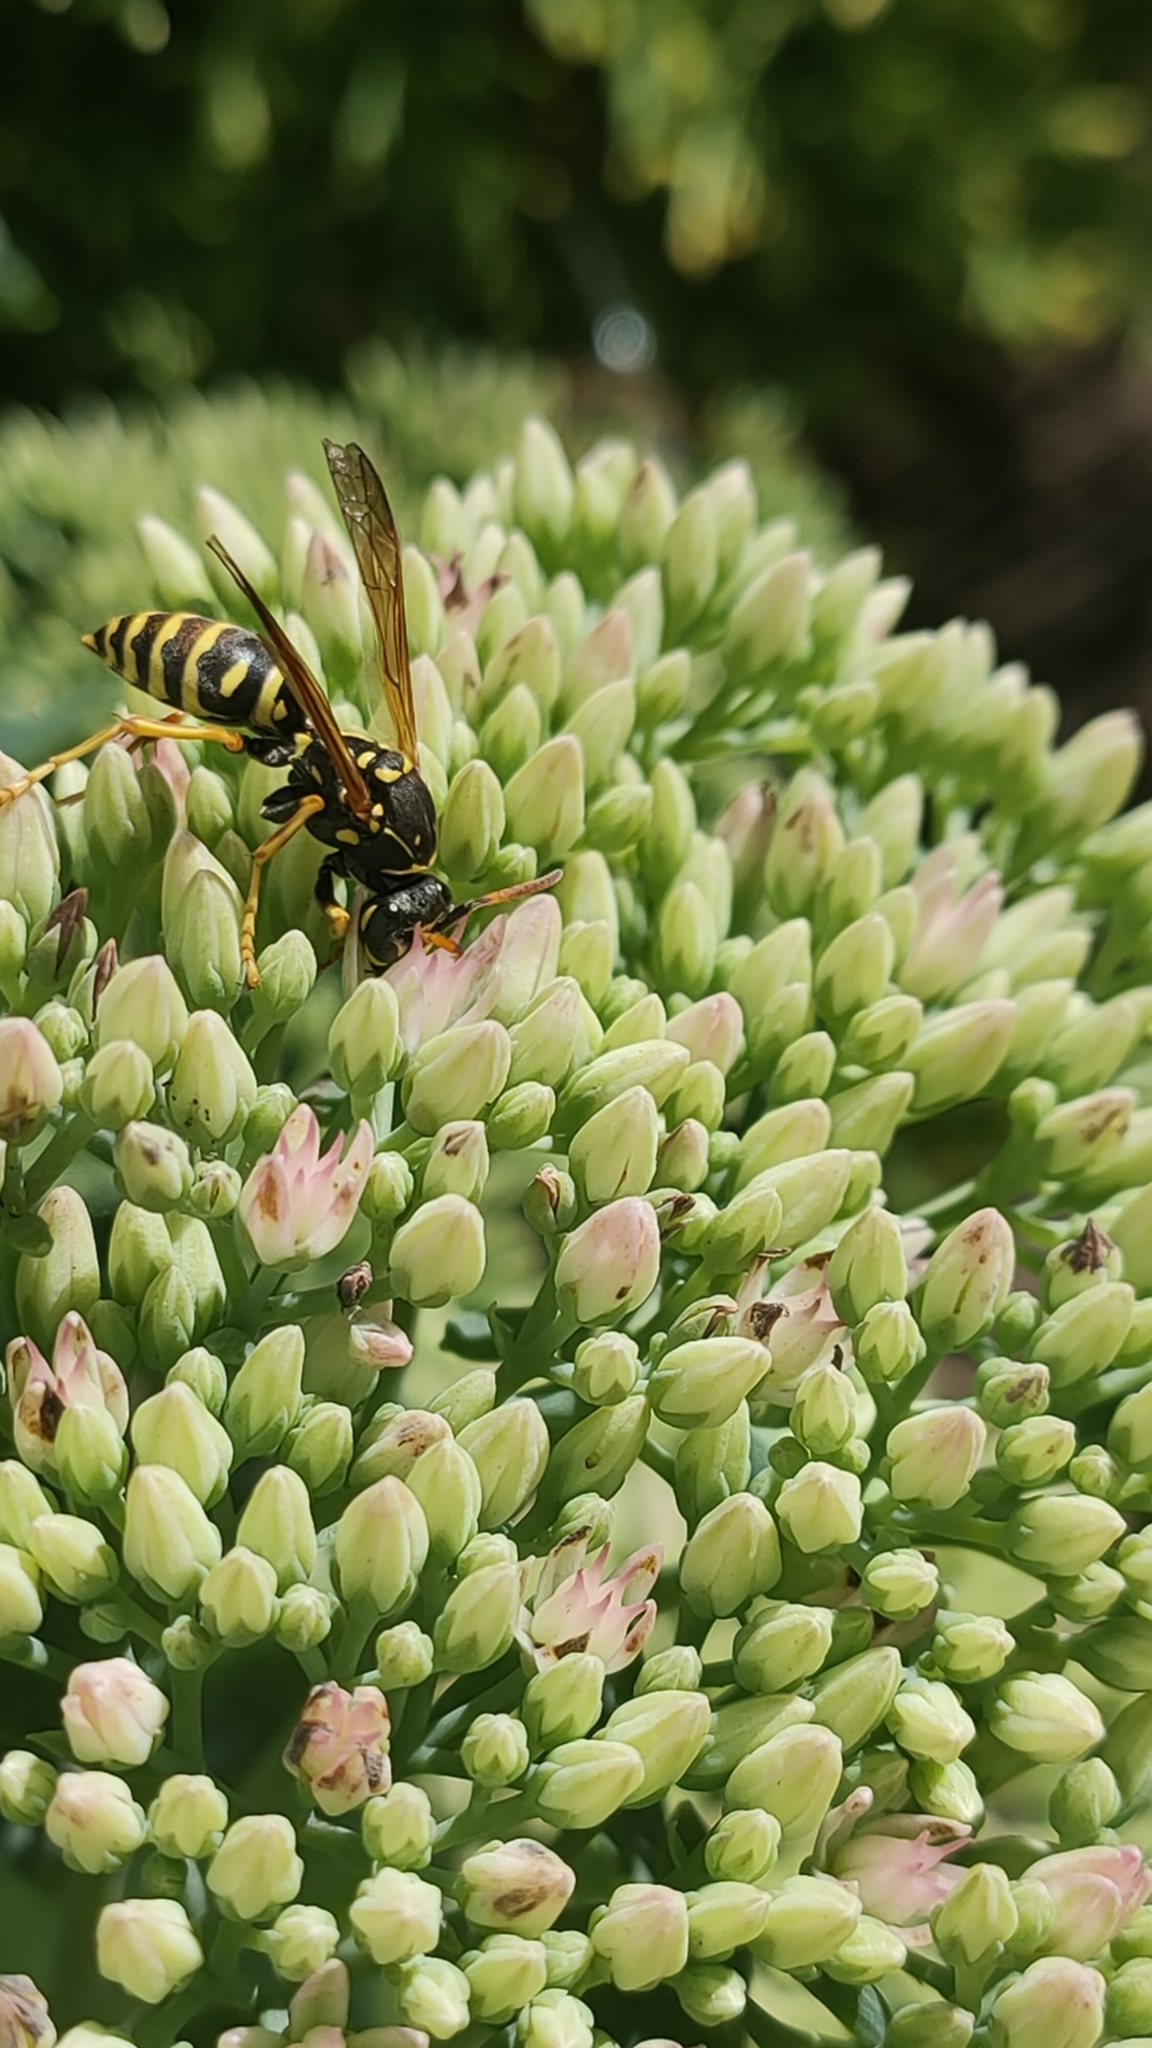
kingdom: Animalia
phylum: Arthropoda
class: Insecta
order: Hymenoptera
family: Eumenidae
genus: Polistes
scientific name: Polistes dominula
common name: Paper wasp
